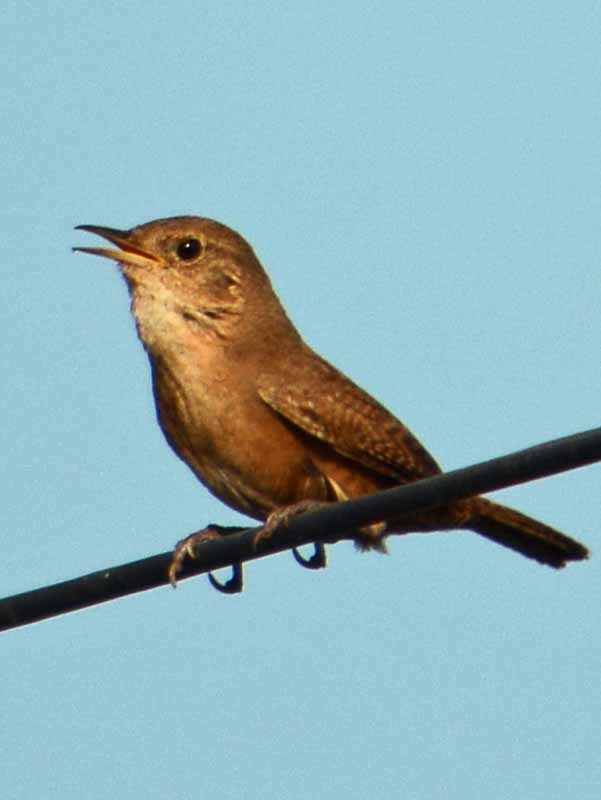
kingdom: Animalia
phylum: Chordata
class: Aves
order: Passeriformes
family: Troglodytidae
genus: Troglodytes
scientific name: Troglodytes aedon
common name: House wren
